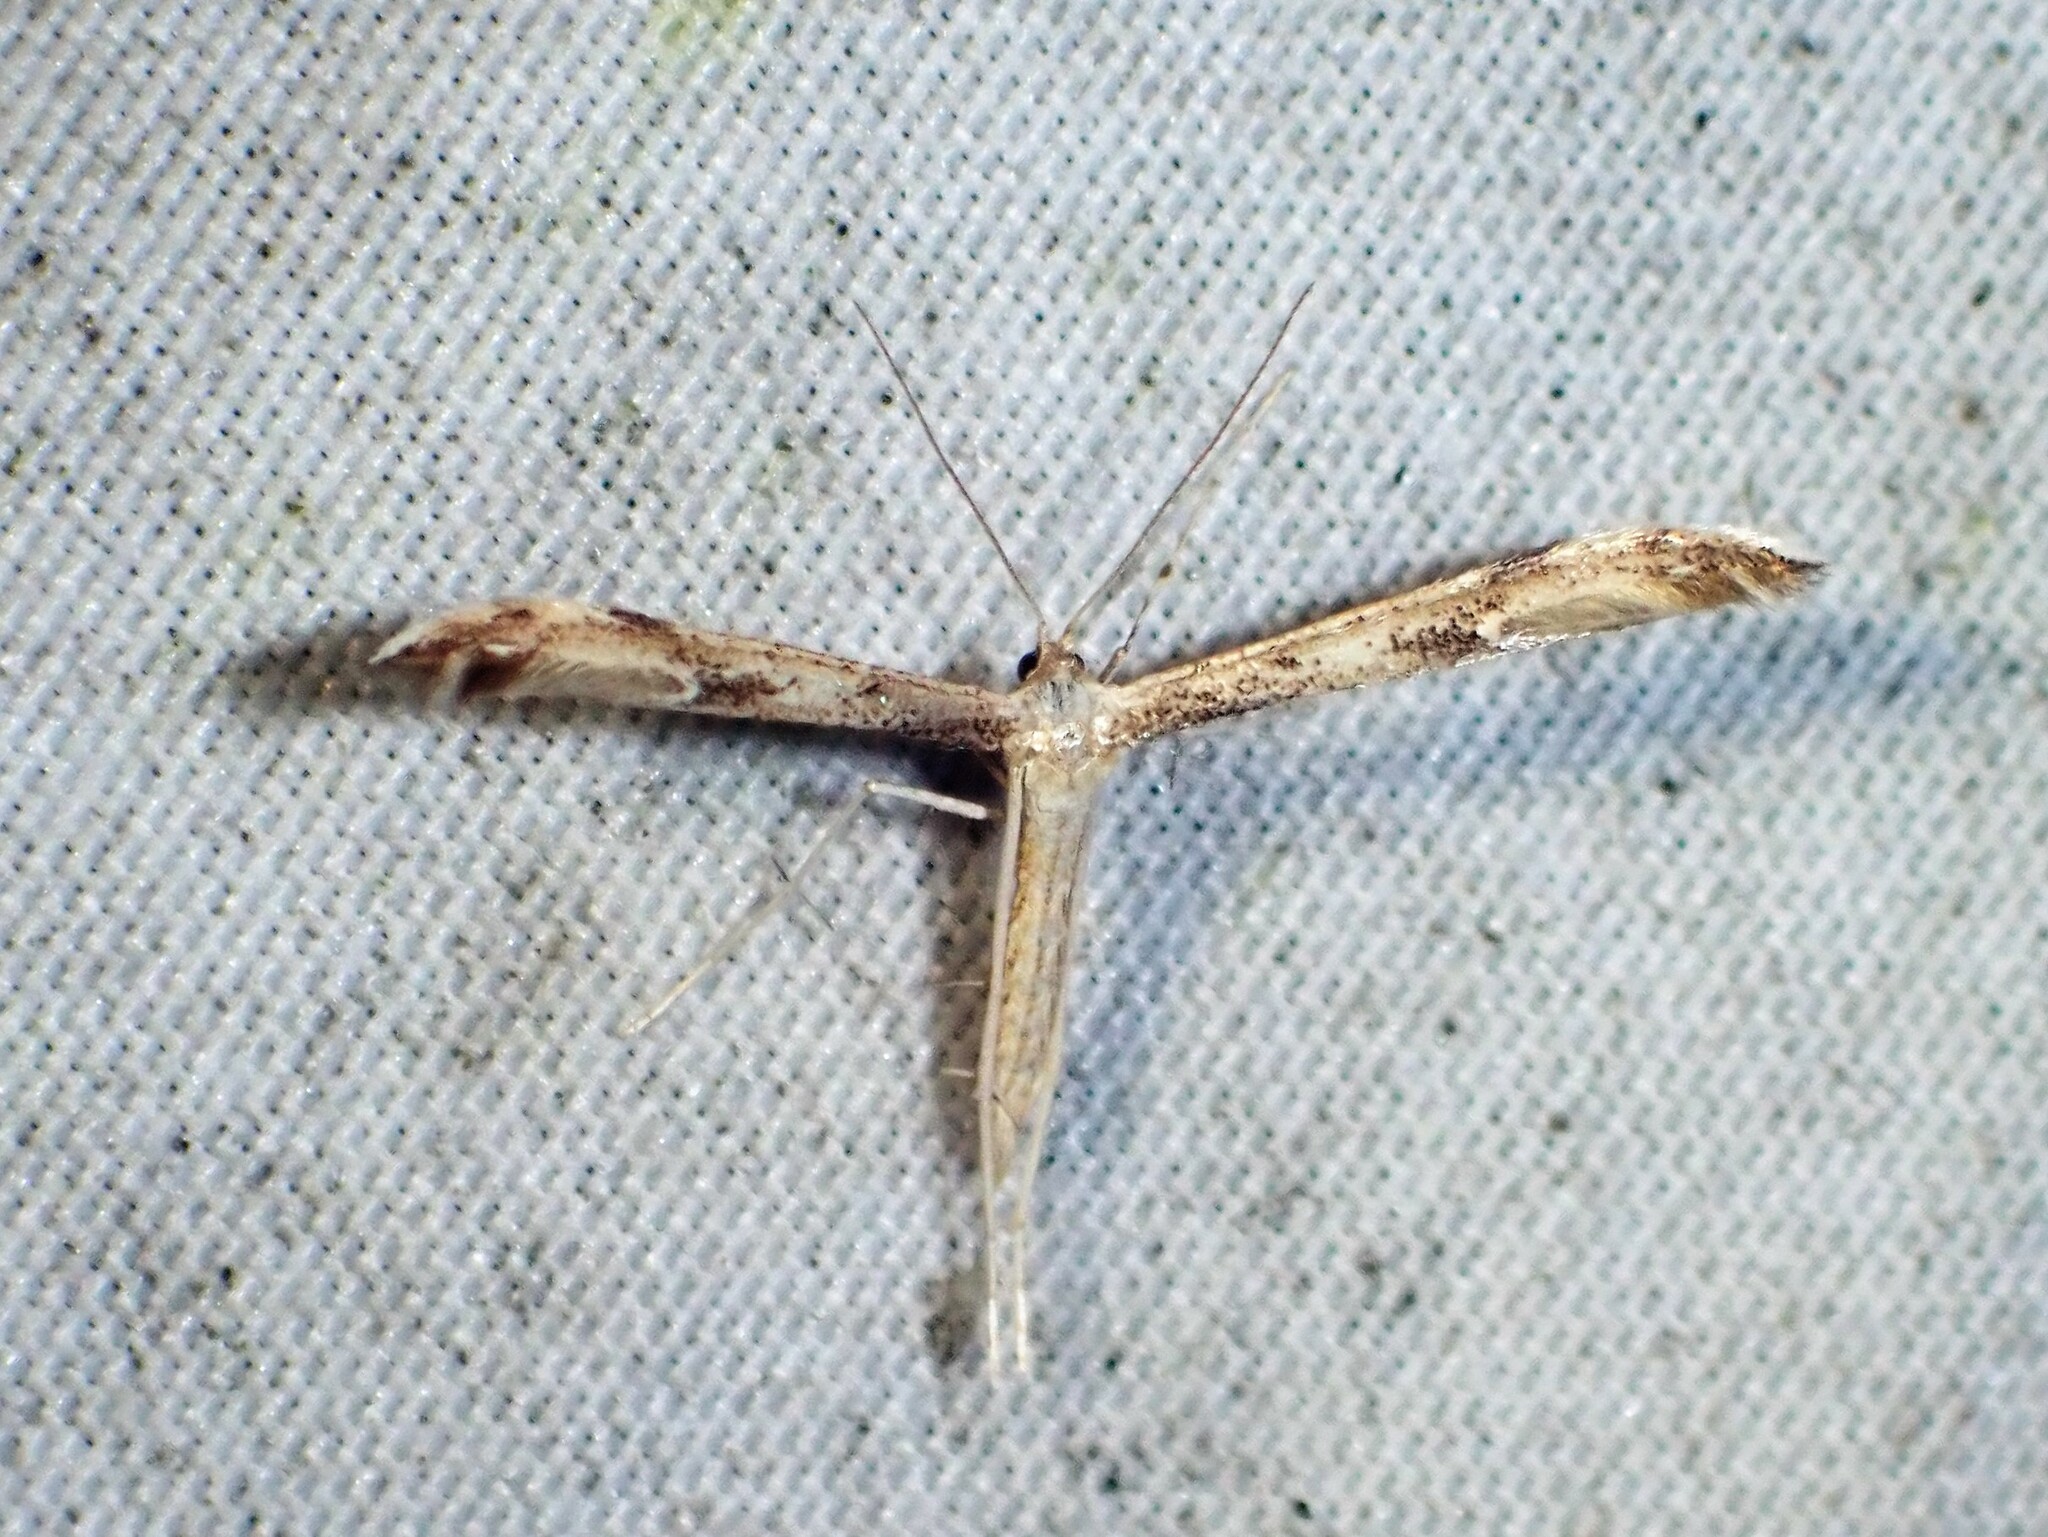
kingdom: Animalia
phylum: Arthropoda
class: Insecta
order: Lepidoptera
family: Pterophoridae
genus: Adaina
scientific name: Adaina montanus
